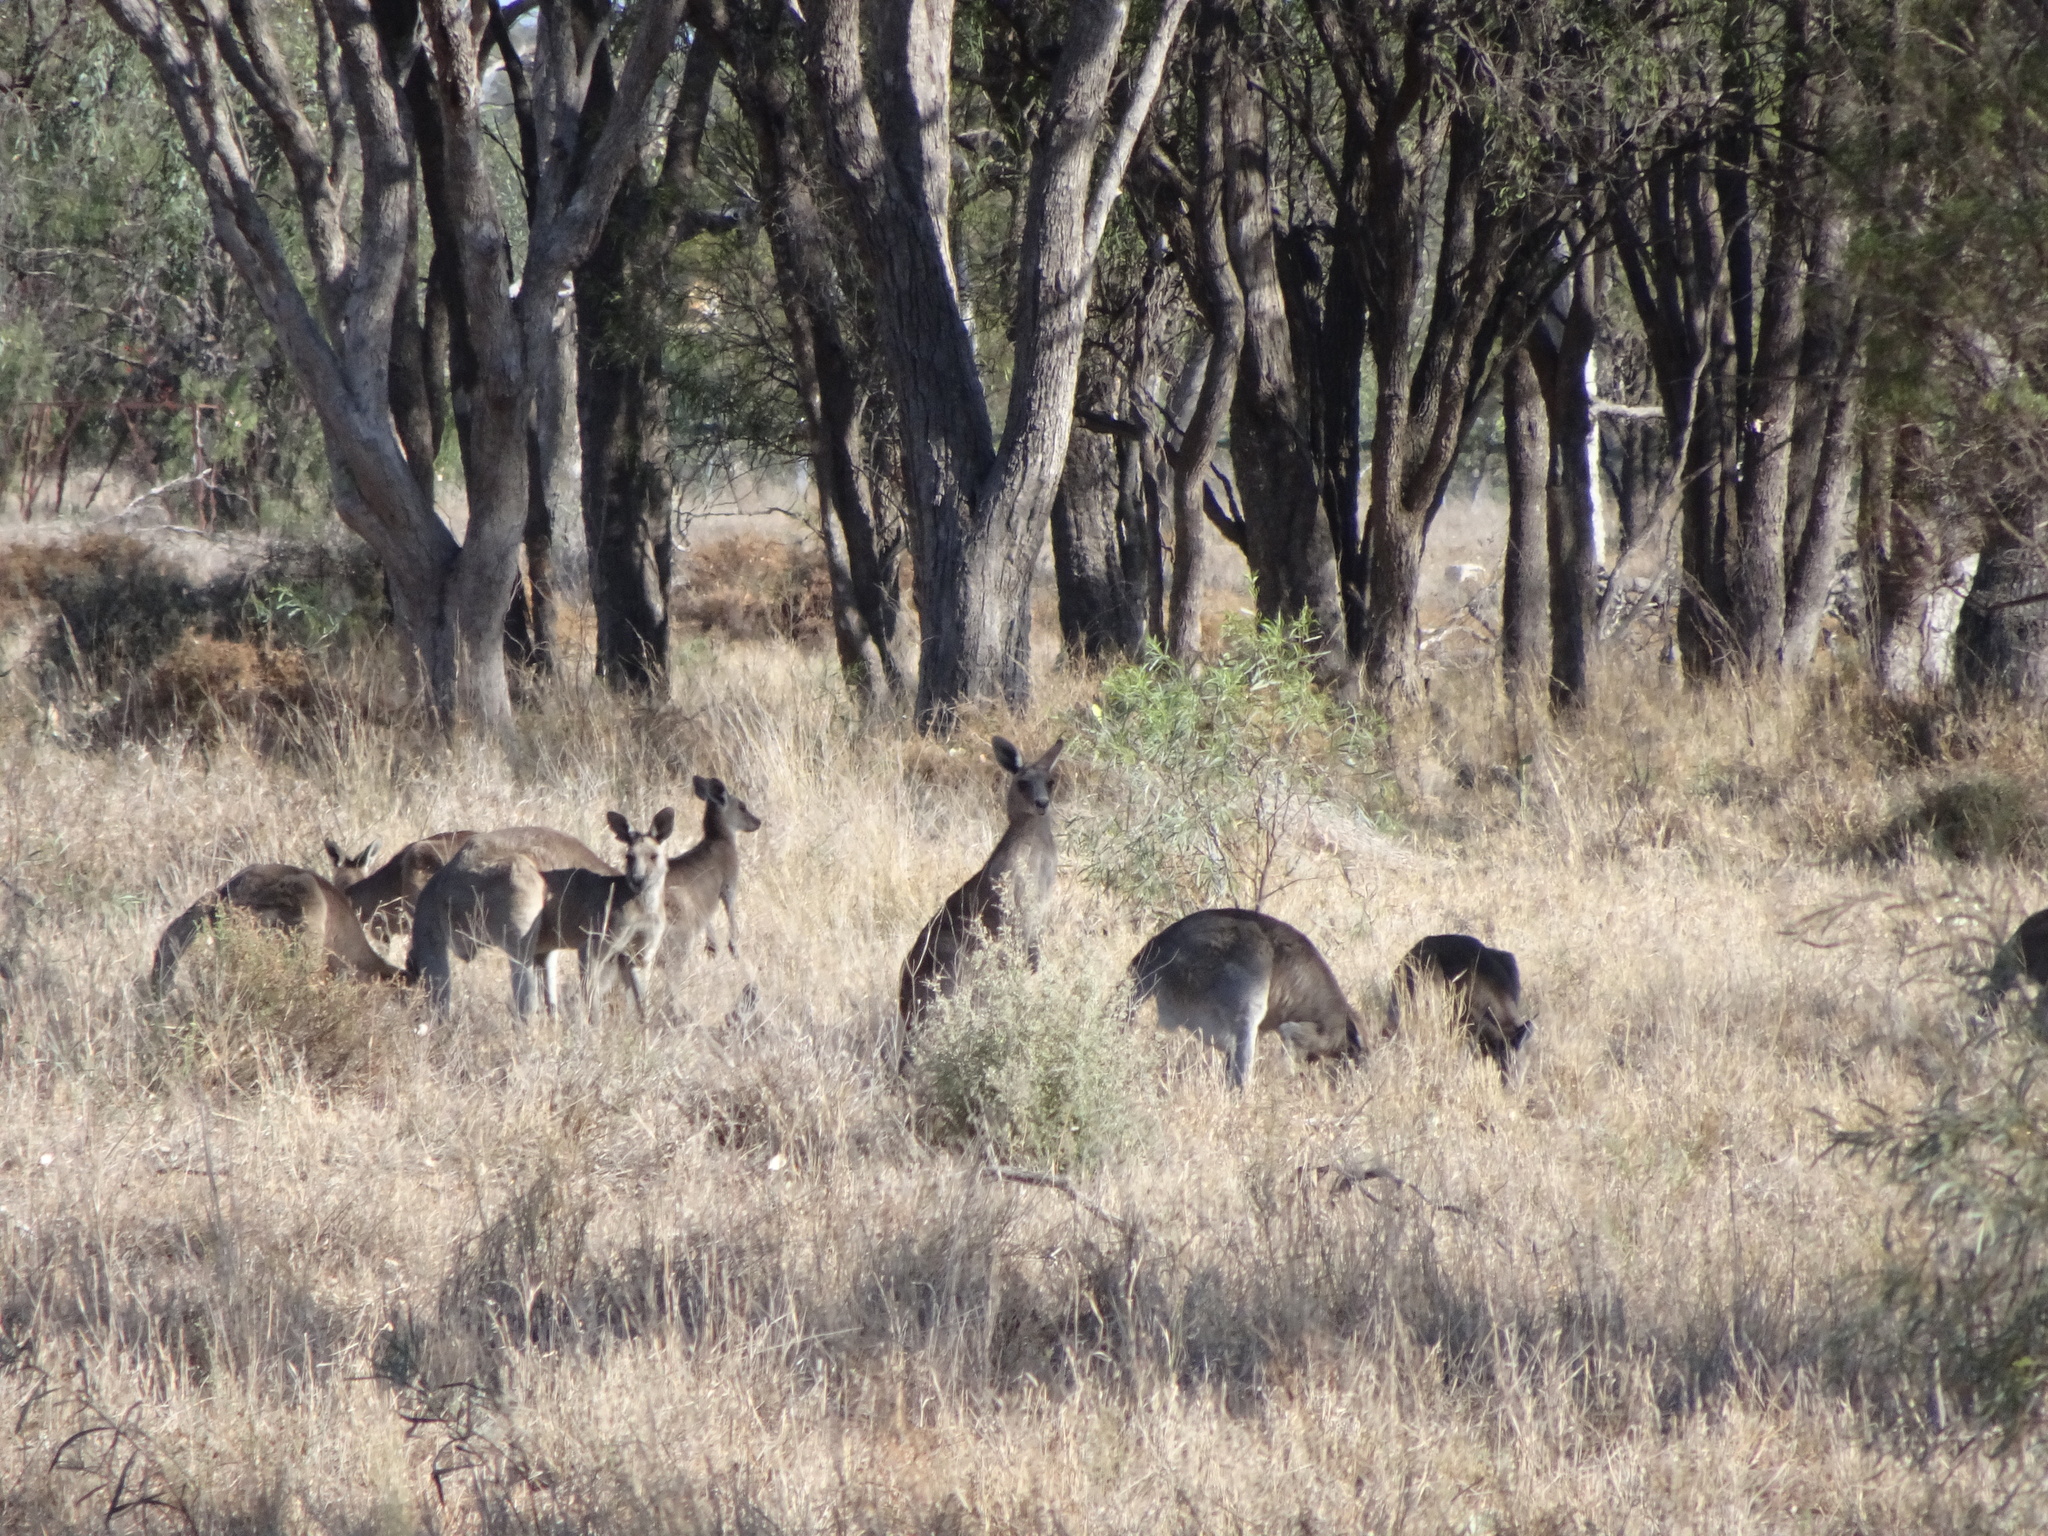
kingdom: Animalia
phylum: Chordata
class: Mammalia
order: Diprotodontia
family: Macropodidae
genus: Macropus
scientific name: Macropus giganteus
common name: Eastern grey kangaroo
